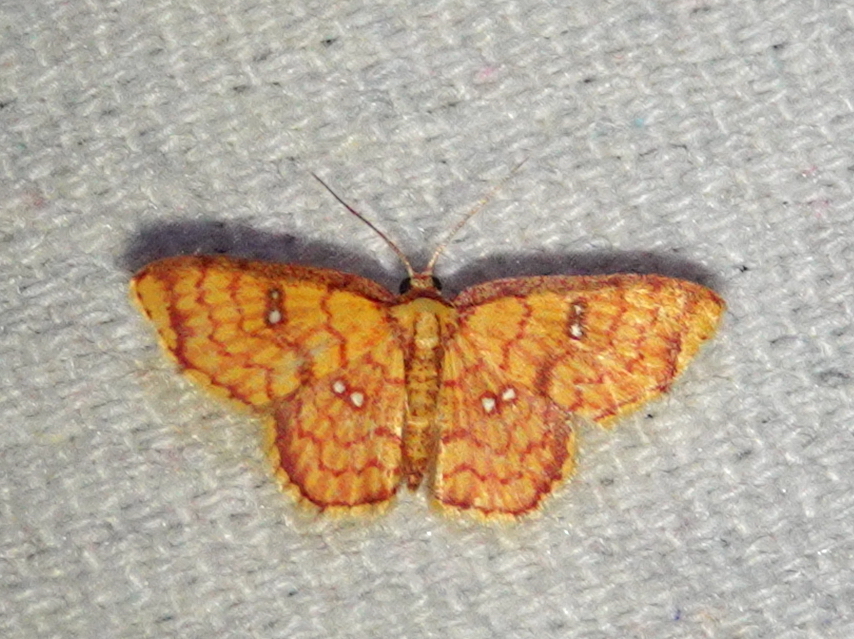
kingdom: Animalia
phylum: Arthropoda
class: Insecta
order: Lepidoptera
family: Geometridae
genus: Tricentra
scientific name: Tricentra benevisio
